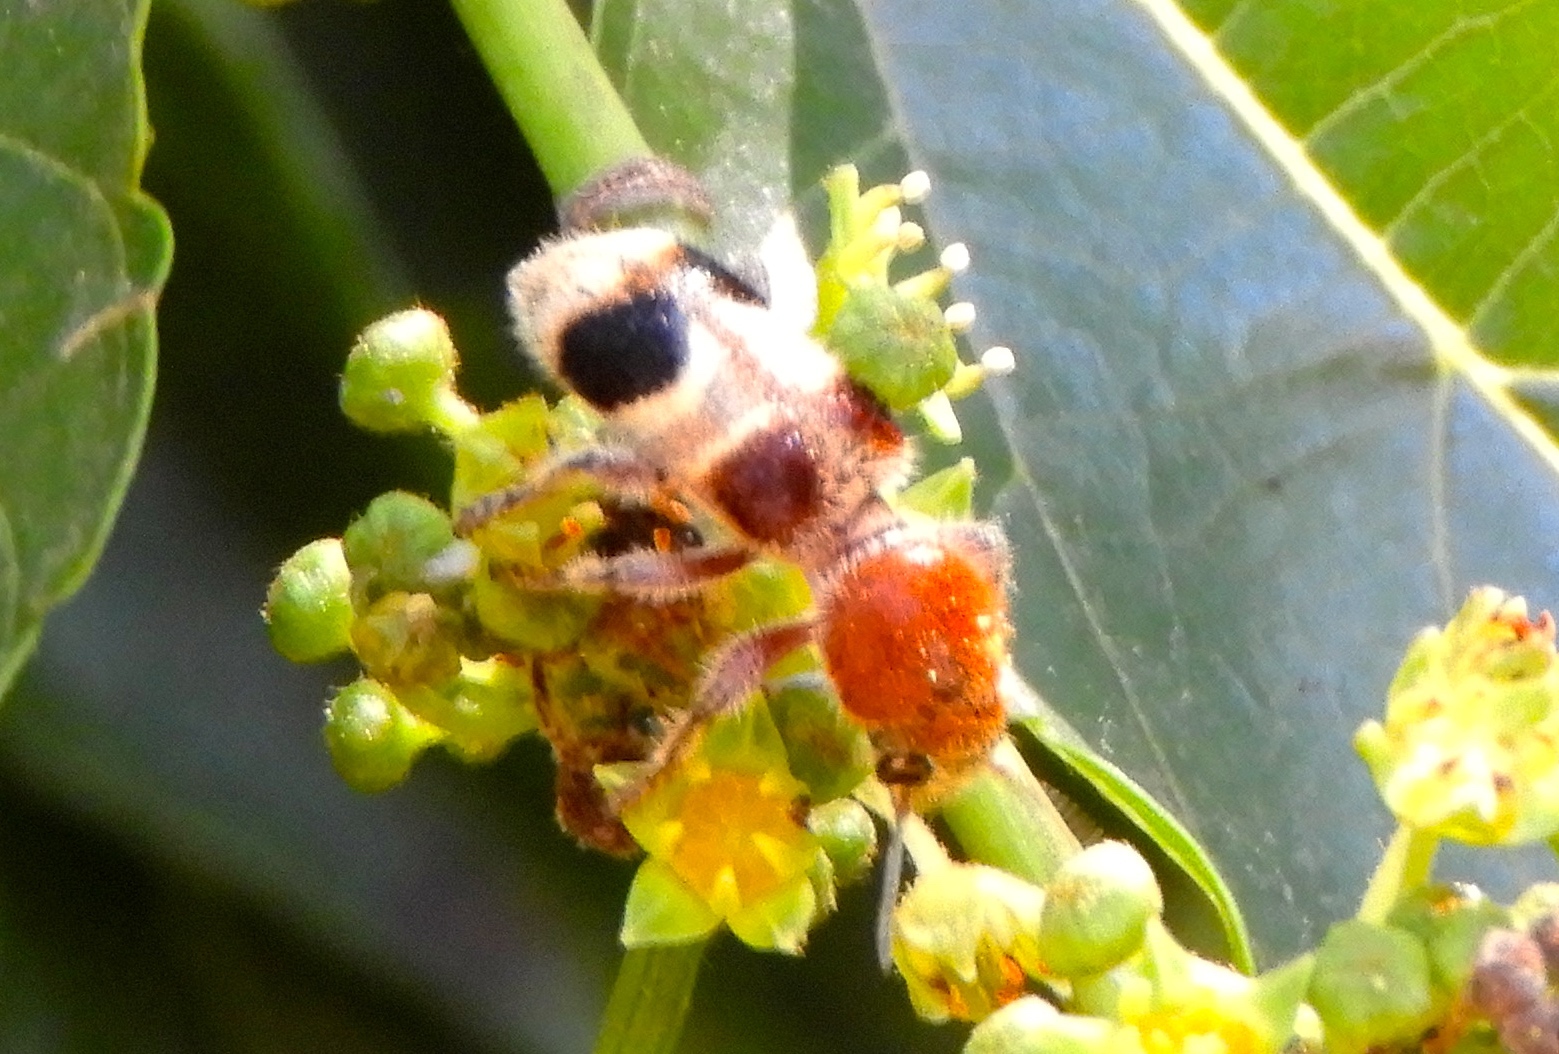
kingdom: Animalia
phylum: Arthropoda
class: Insecta
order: Coleoptera
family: Cleridae
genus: Enoclerus
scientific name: Enoclerus quadriguttatus
